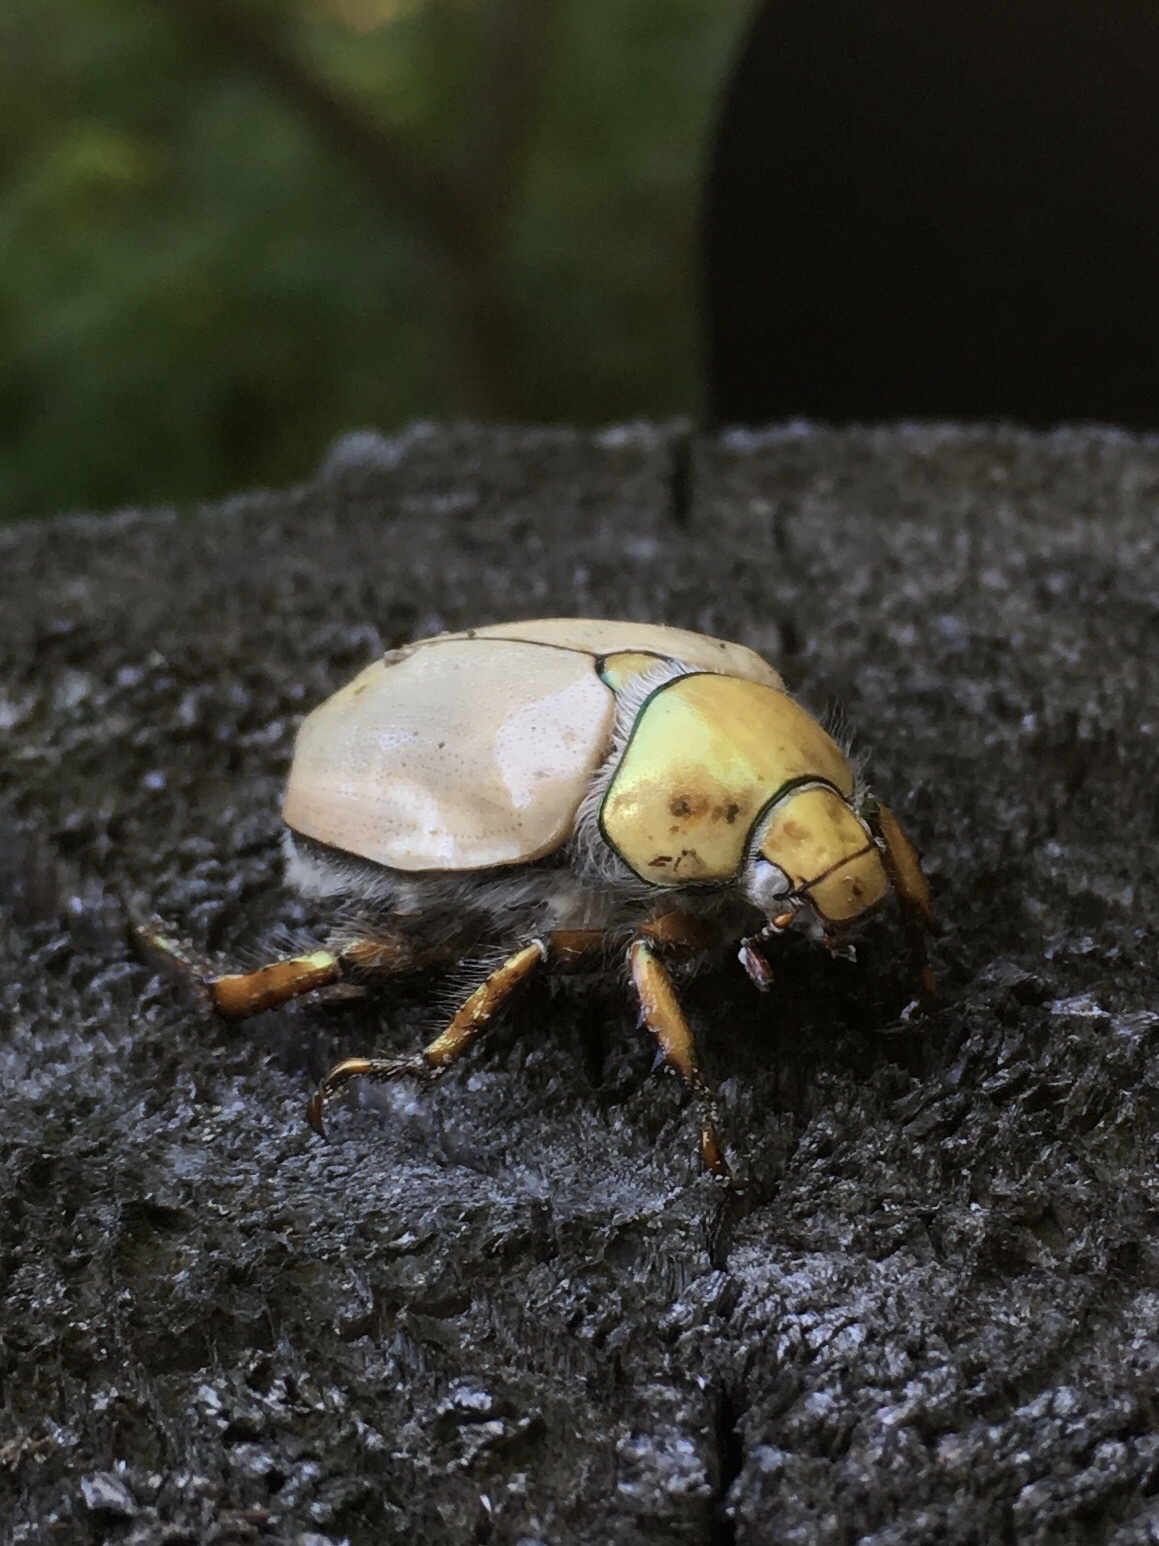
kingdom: Animalia
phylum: Arthropoda
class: Insecta
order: Coleoptera
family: Scarabaeidae
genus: Cotalpa
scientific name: Cotalpa lanigera
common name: Goldsmith beetle
